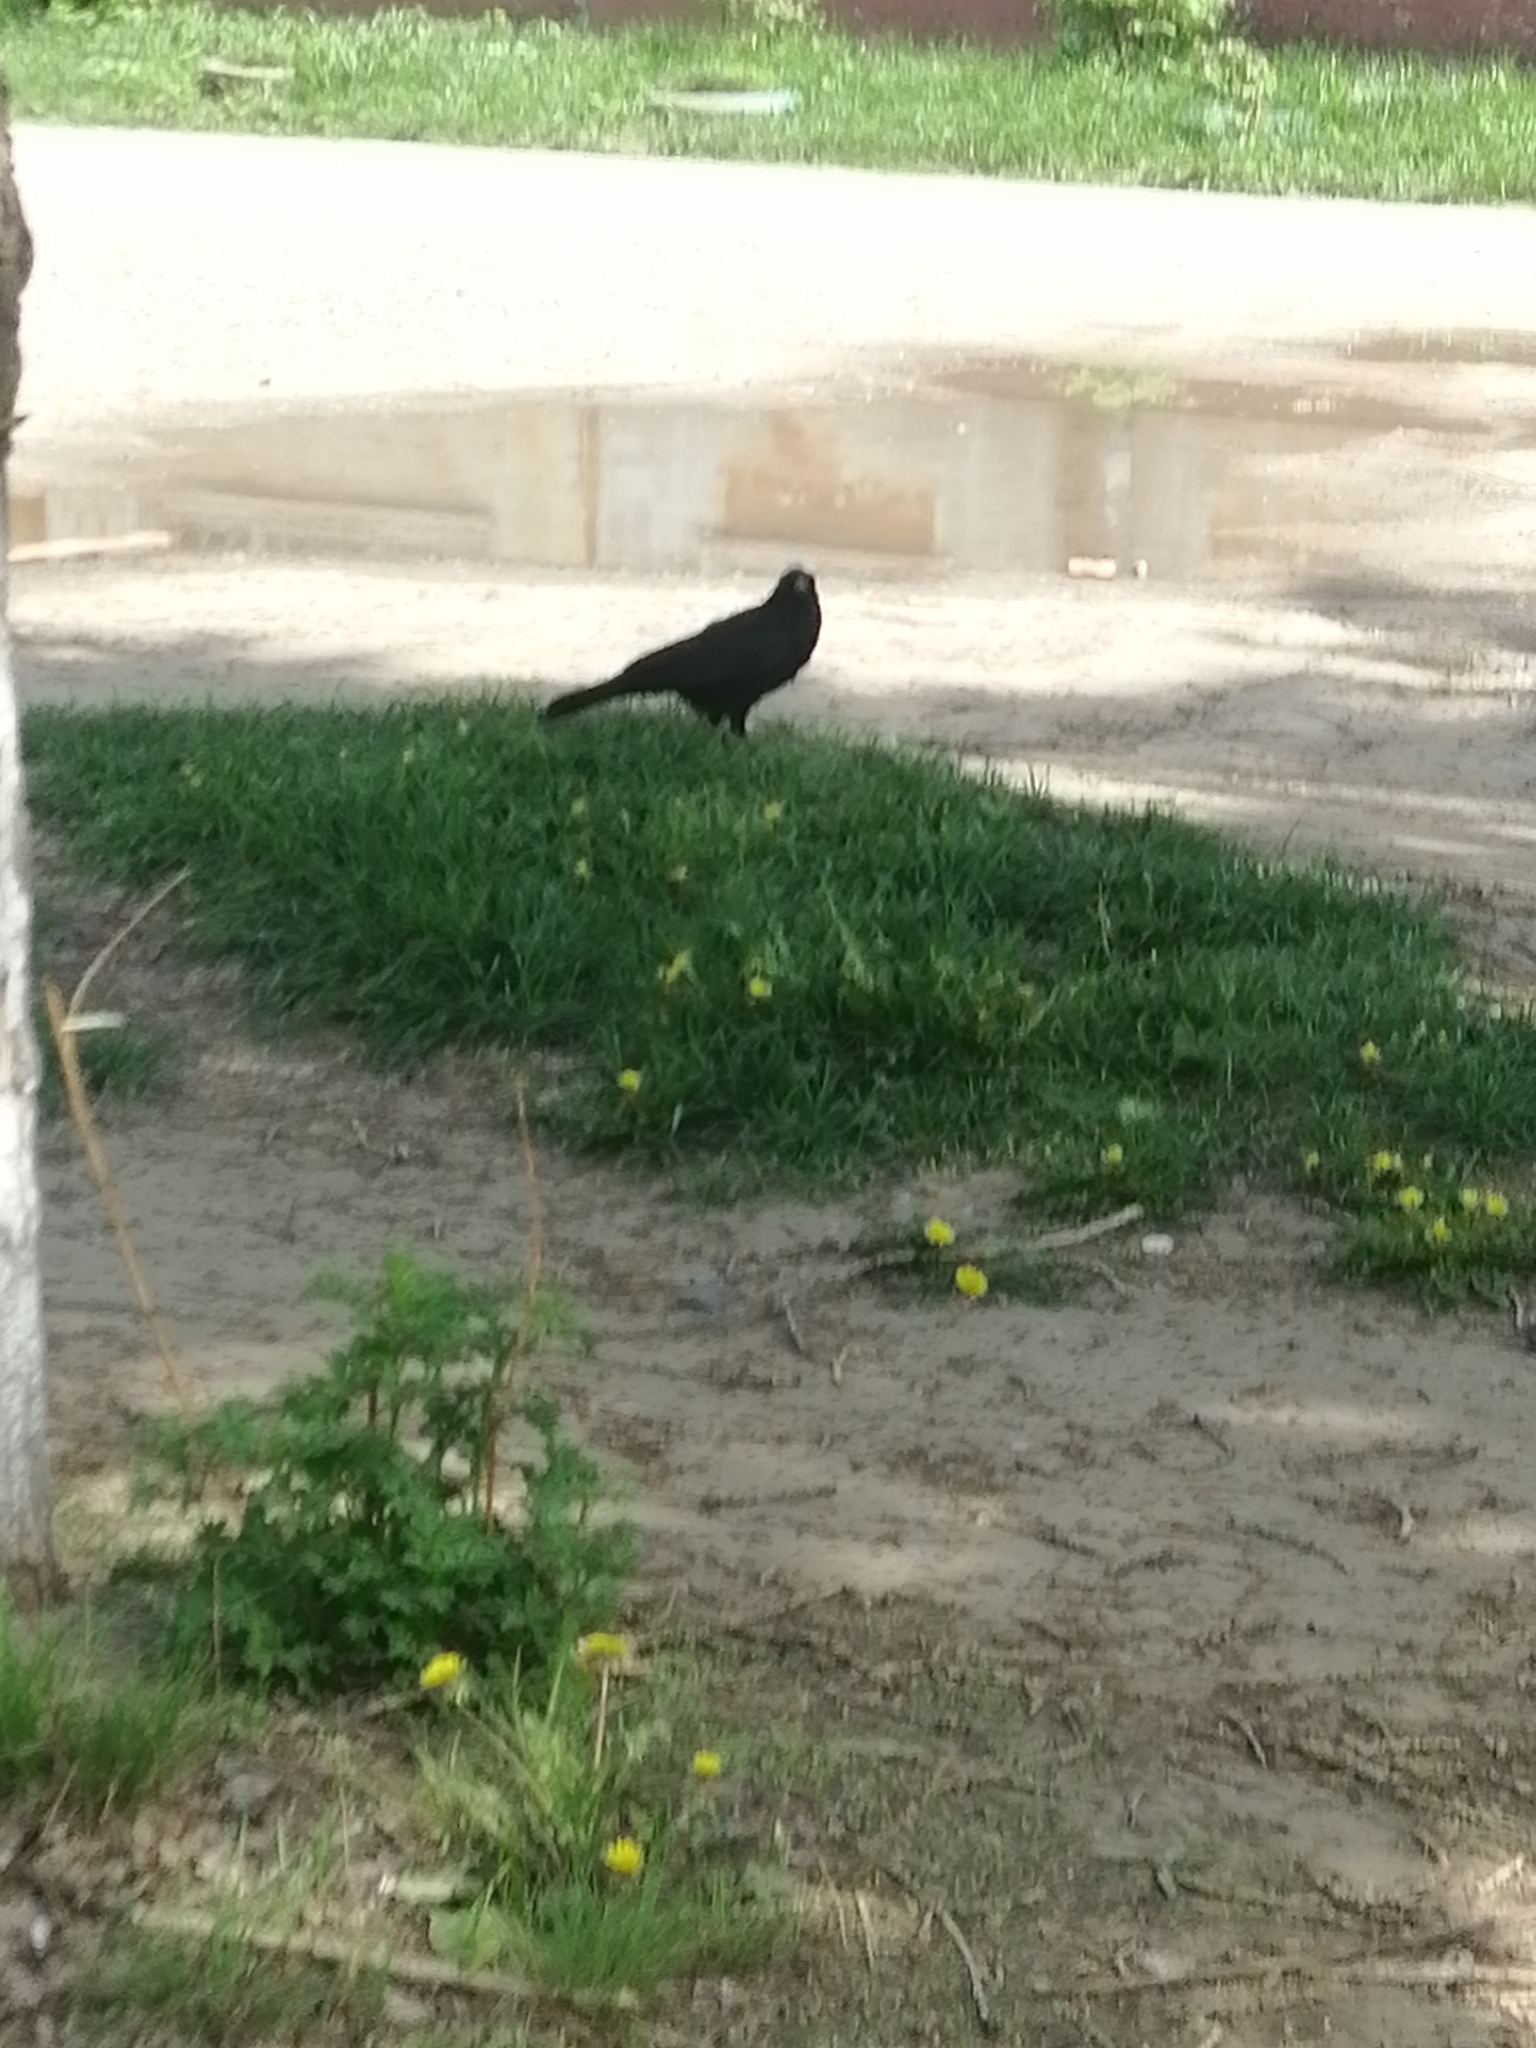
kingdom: Animalia
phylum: Chordata
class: Aves
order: Passeriformes
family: Corvidae
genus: Corvus
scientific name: Corvus corax
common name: Common raven
